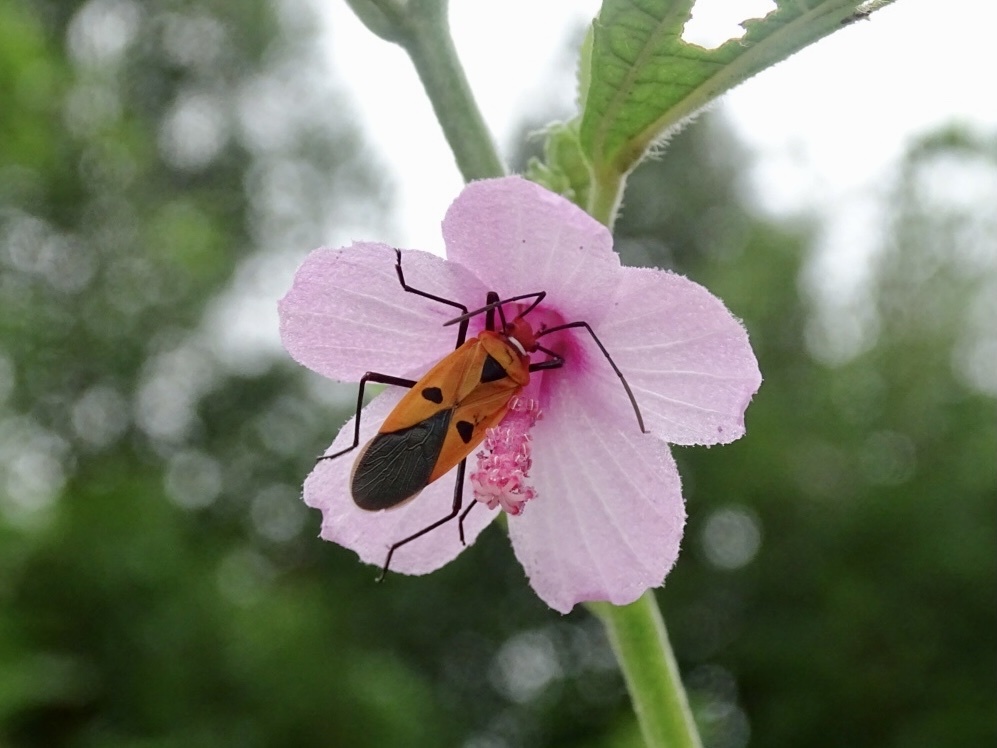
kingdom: Animalia
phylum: Arthropoda
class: Insecta
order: Hemiptera
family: Pyrrhocoridae
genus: Dysdercus
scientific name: Dysdercus cingulatus
